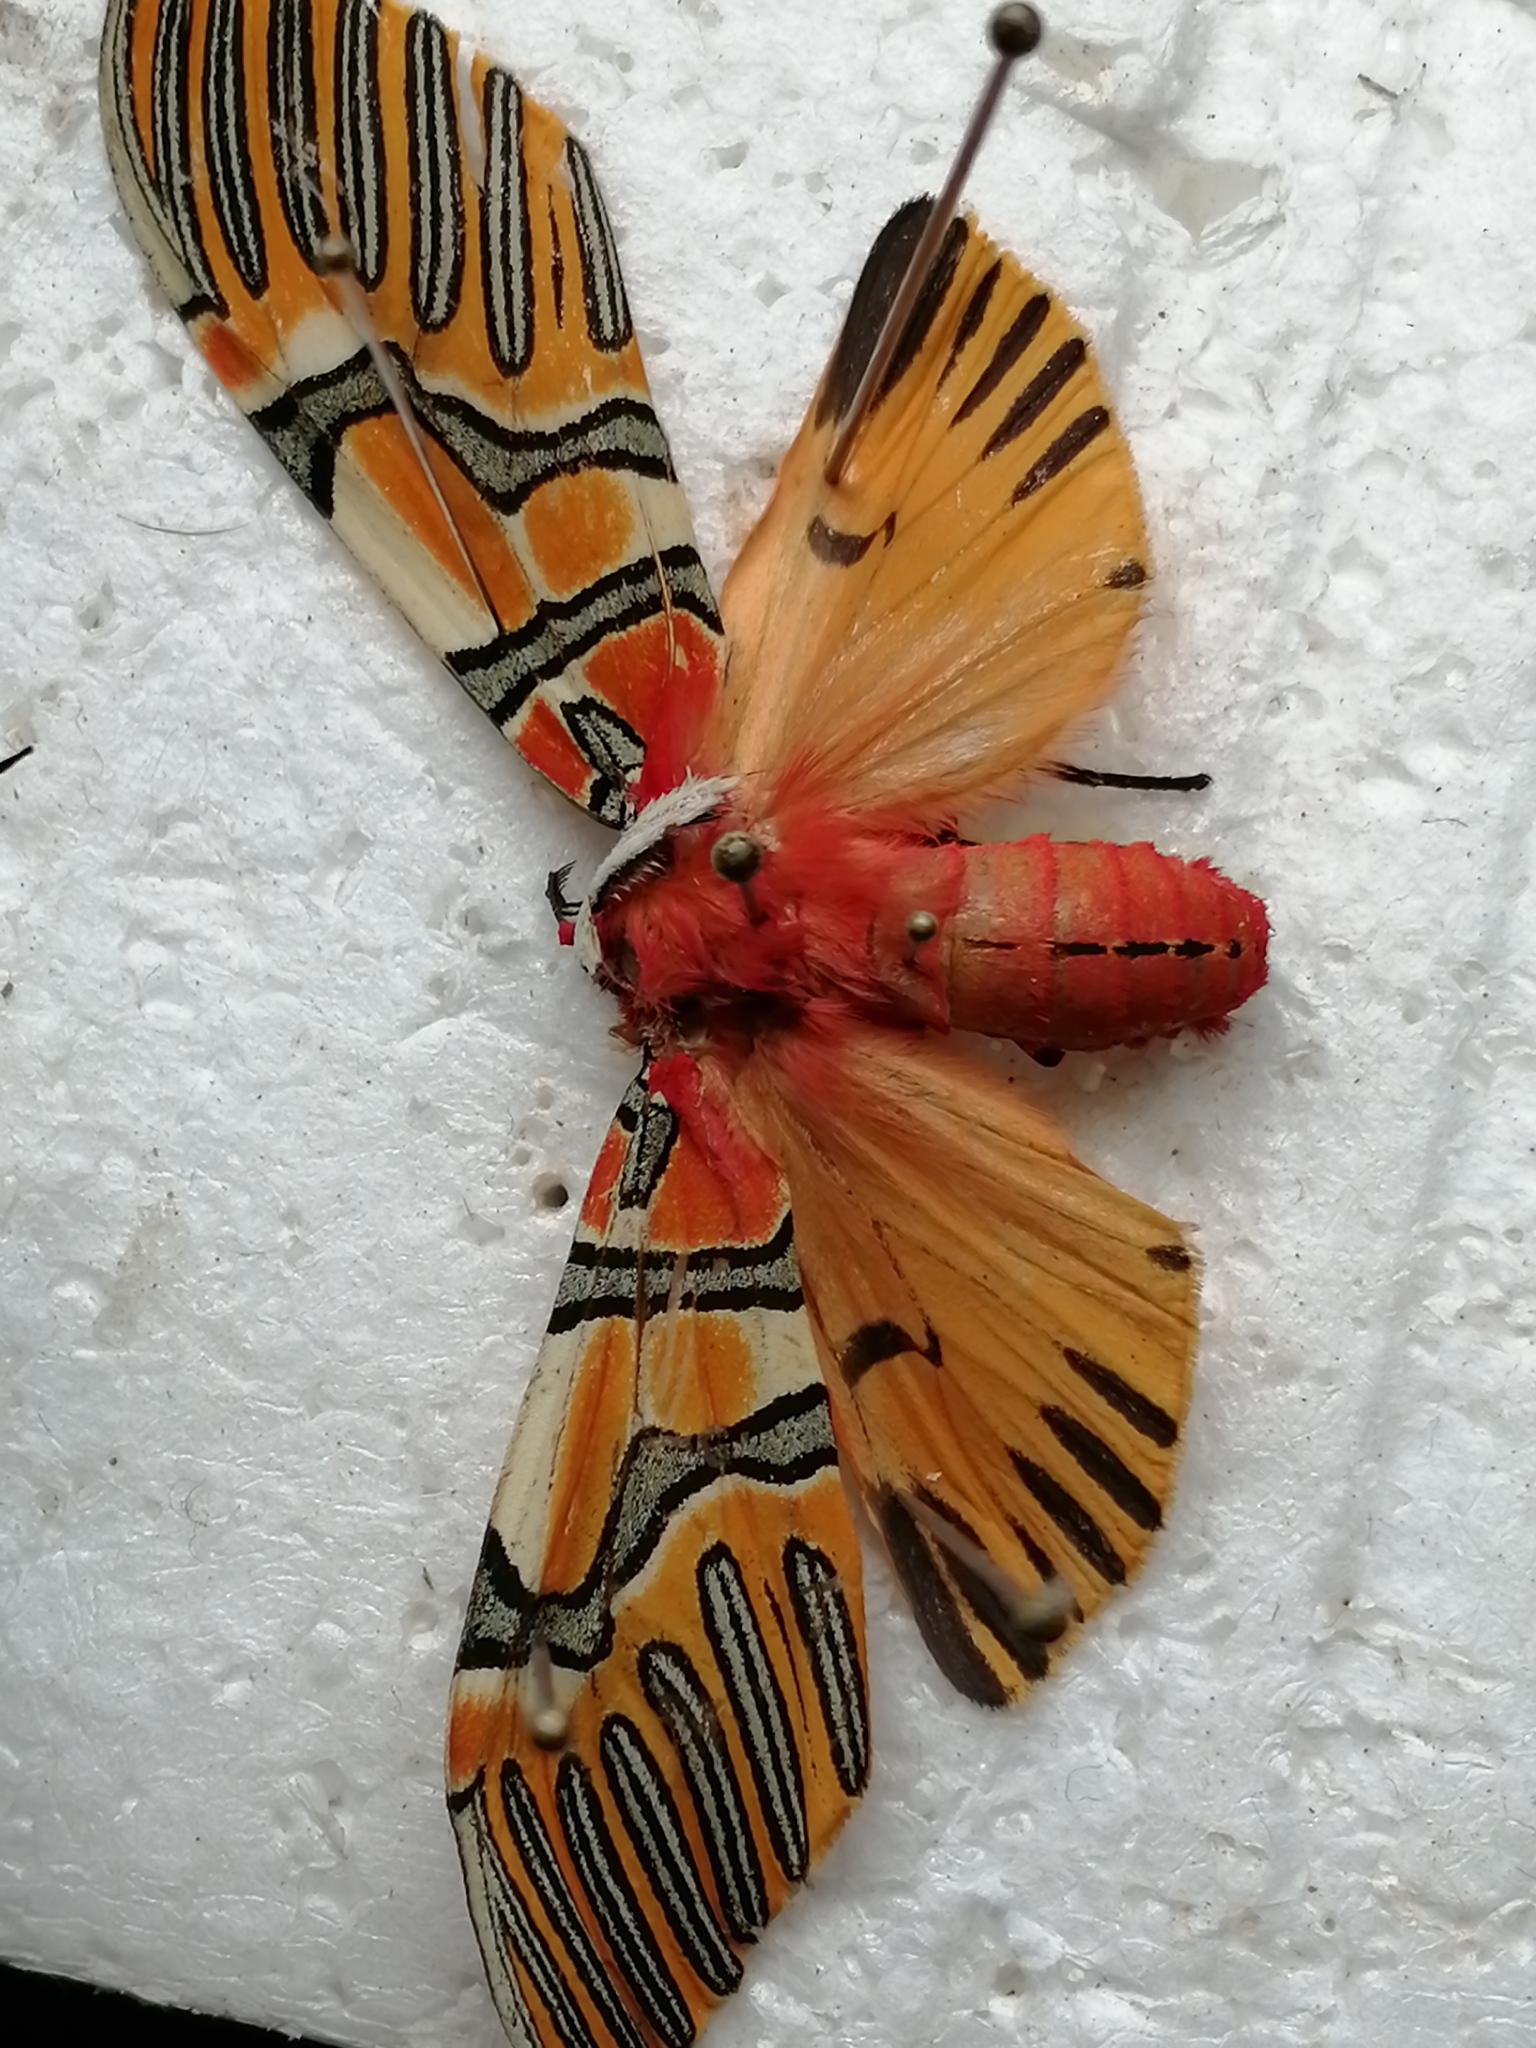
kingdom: Animalia
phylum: Arthropoda
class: Insecta
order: Lepidoptera
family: Erebidae
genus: Anaxita
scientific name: Anaxita decorata
